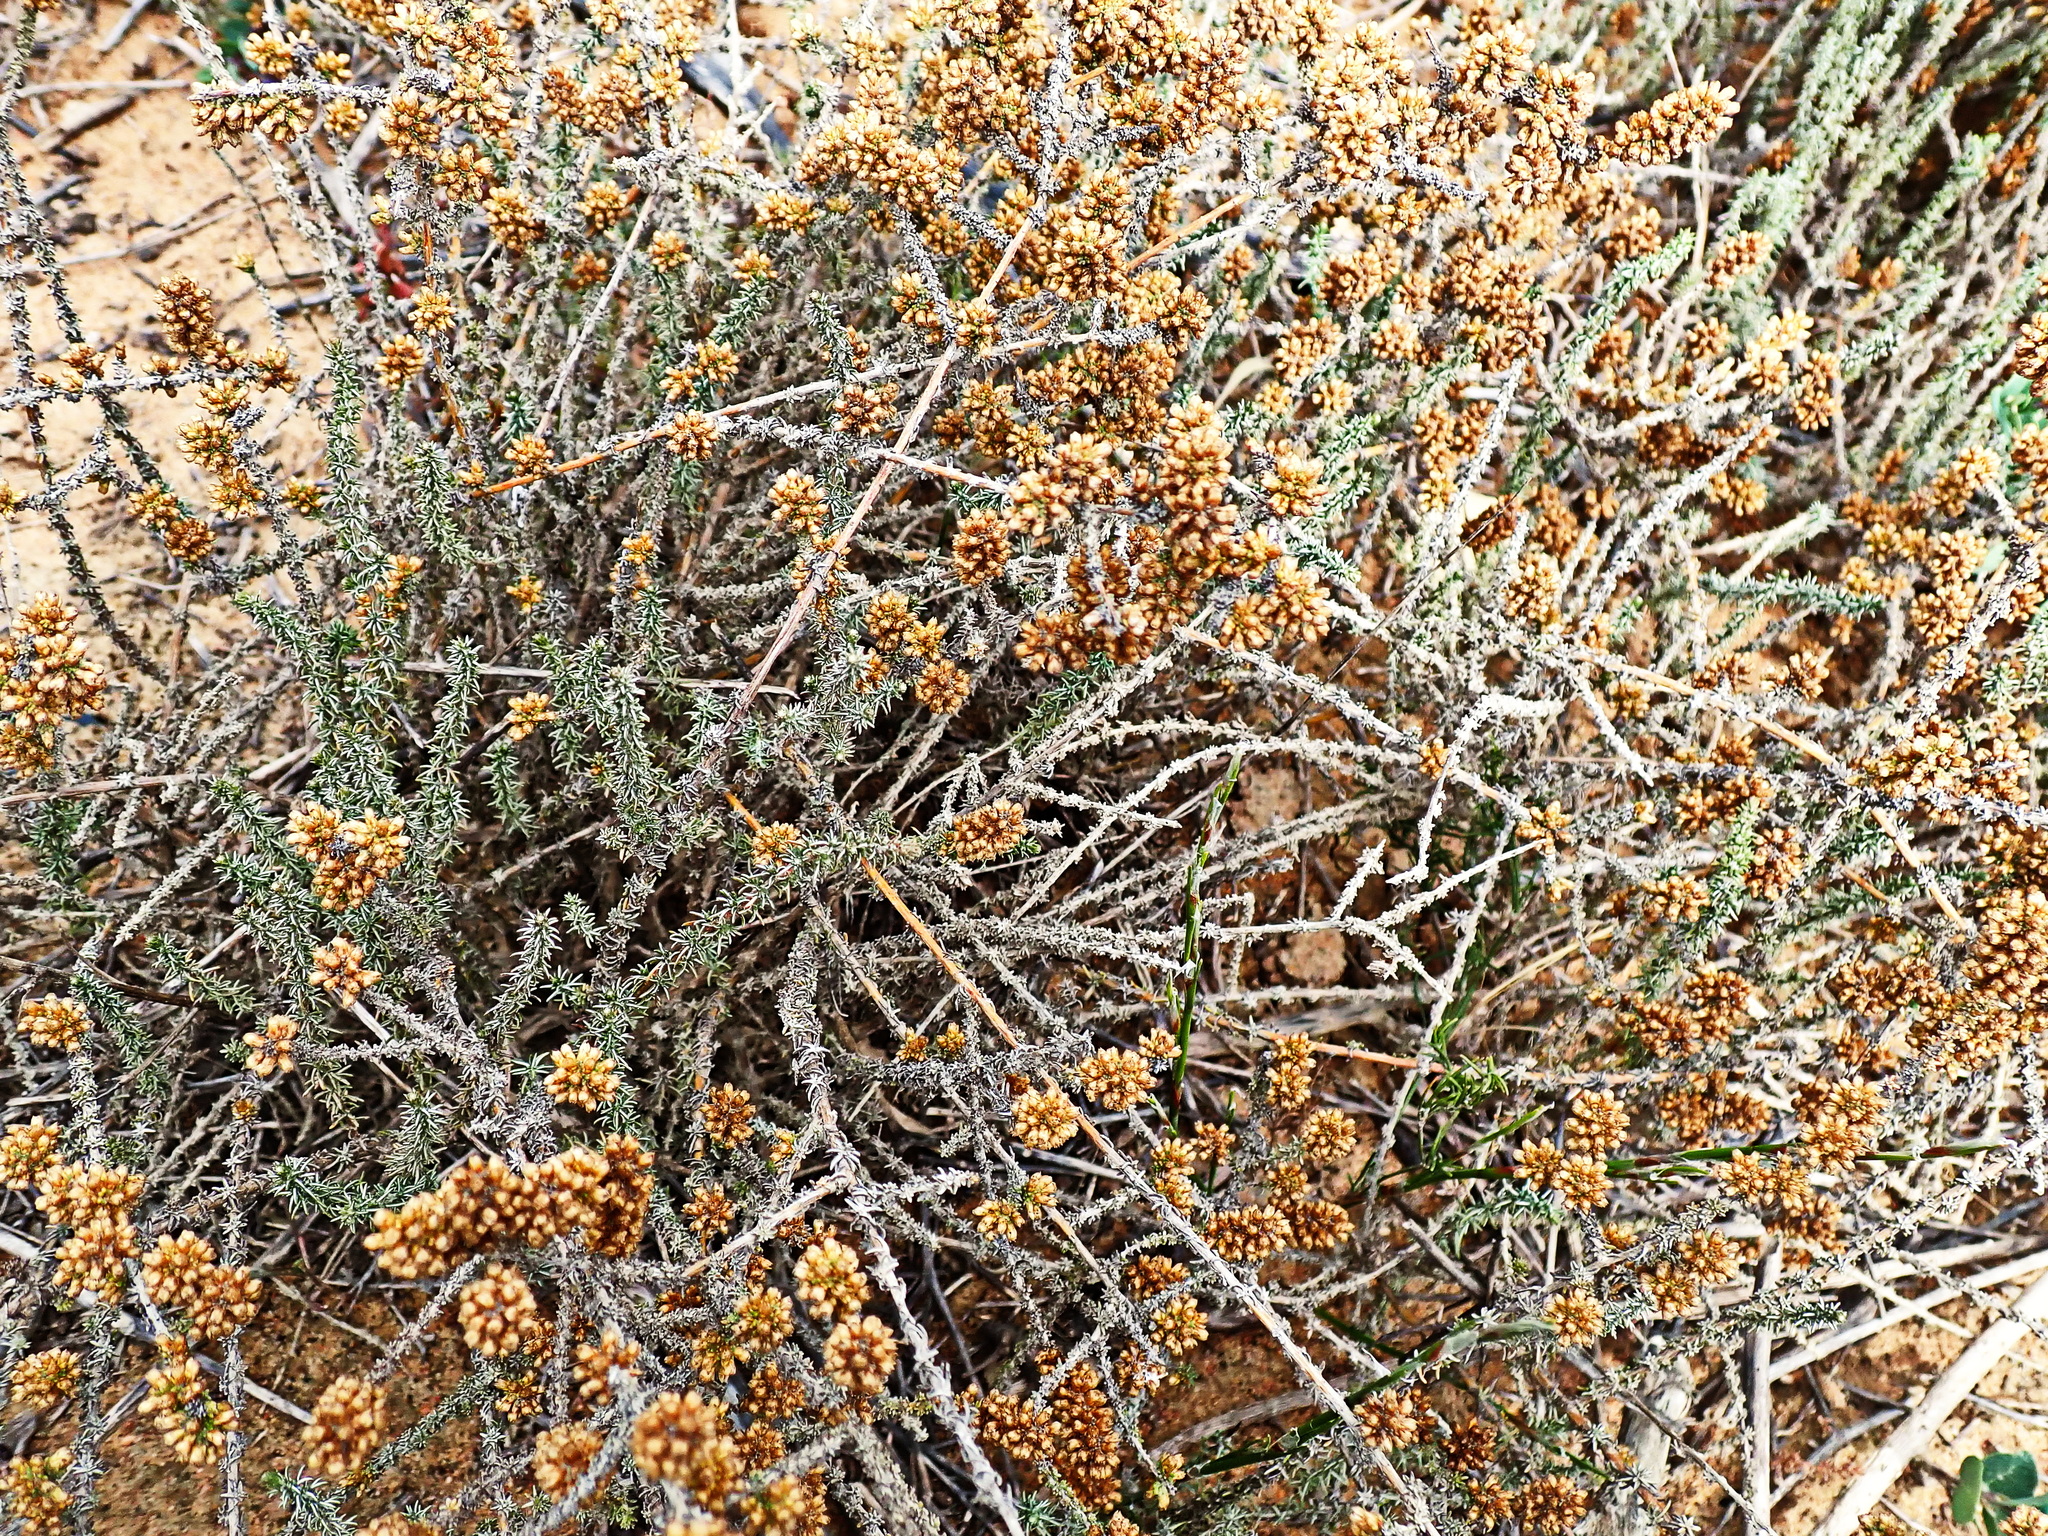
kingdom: Plantae
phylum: Tracheophyta
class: Magnoliopsida
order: Asterales
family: Asteraceae
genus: Ifloga
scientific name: Ifloga repens
